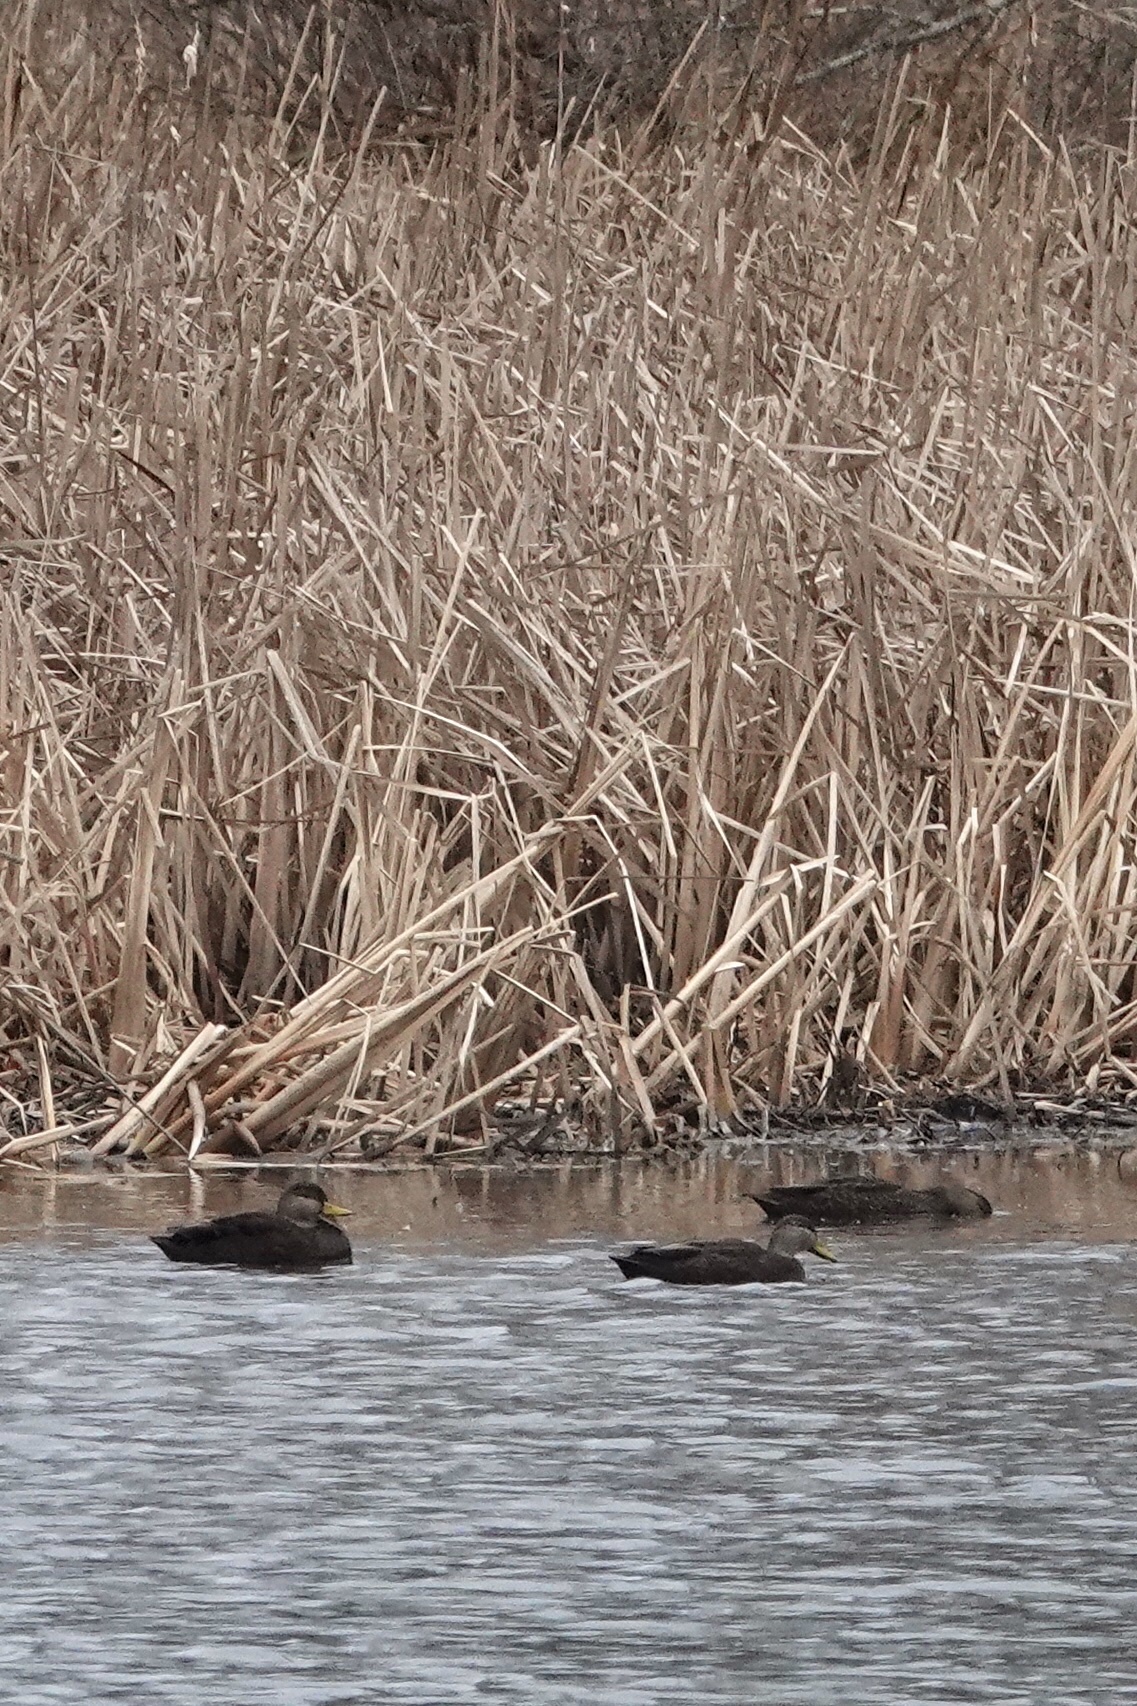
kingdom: Animalia
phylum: Chordata
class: Aves
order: Anseriformes
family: Anatidae
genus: Anas
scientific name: Anas rubripes
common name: American black duck
